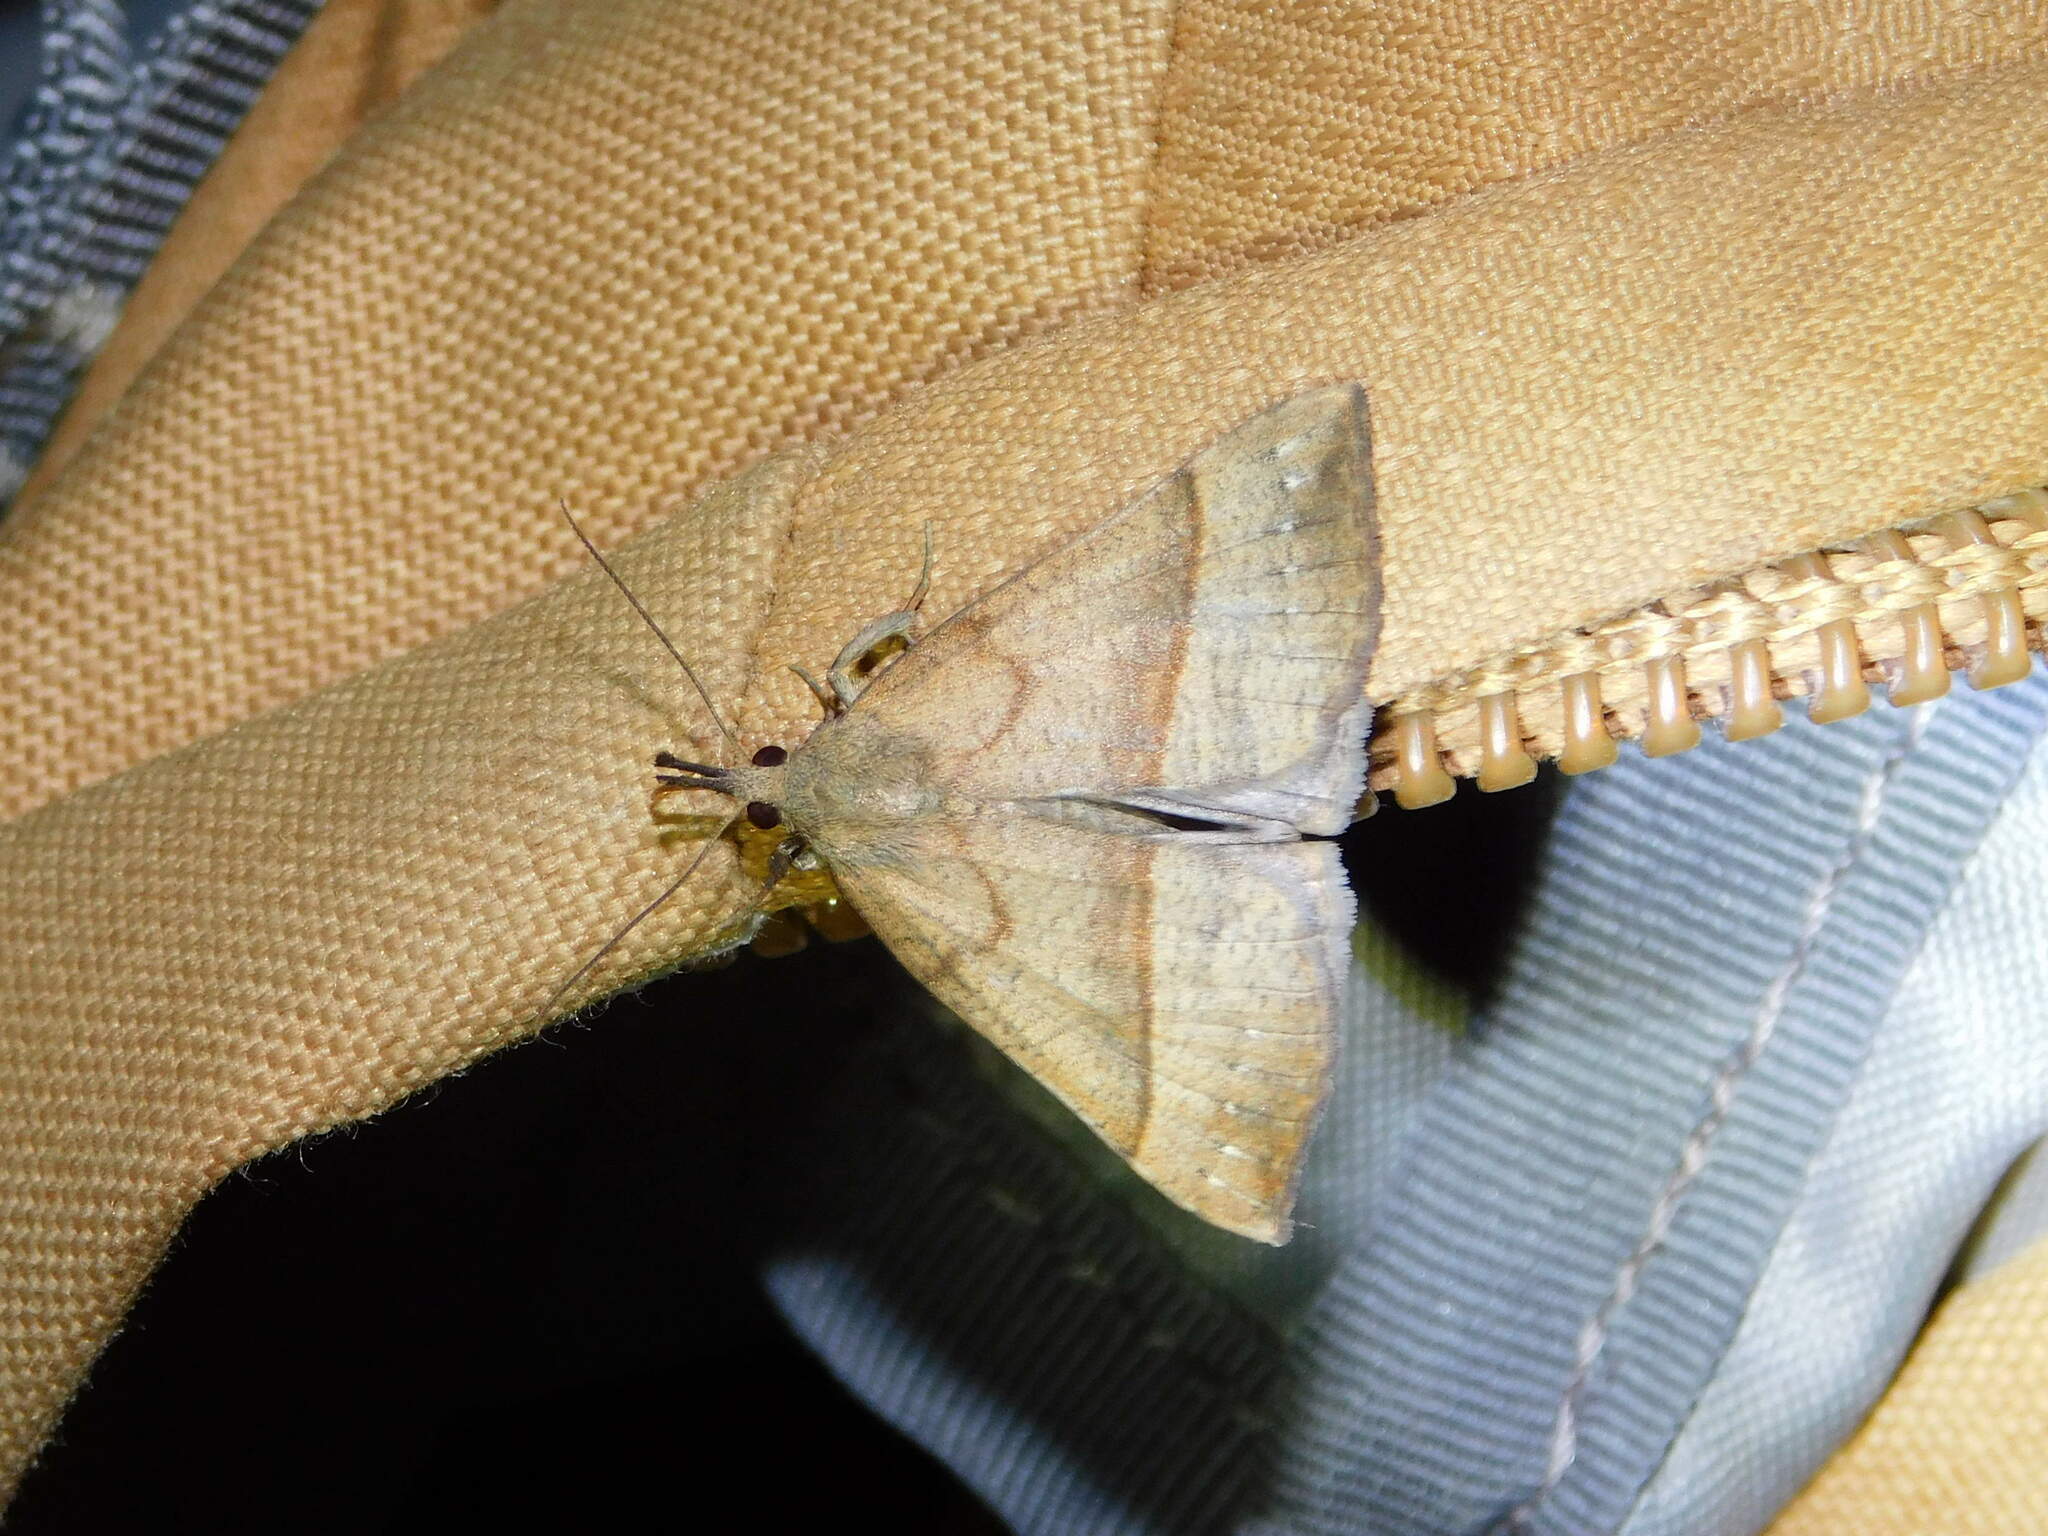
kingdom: Animalia
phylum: Arthropoda
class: Insecta
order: Lepidoptera
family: Erebidae
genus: Hypena
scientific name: Hypena proboscidalis
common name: Snout
